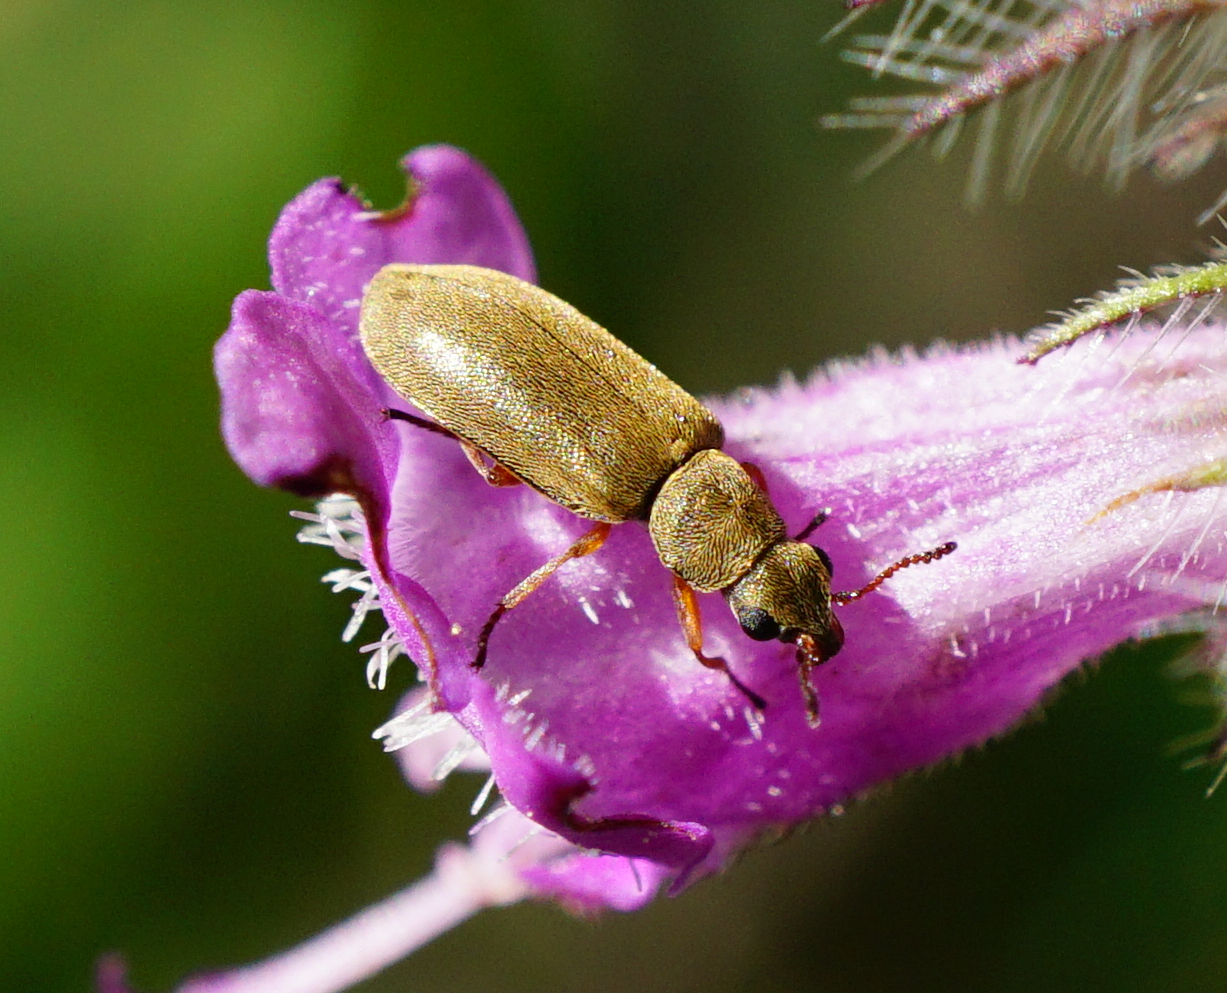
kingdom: Animalia
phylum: Arthropoda
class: Insecta
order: Coleoptera
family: Dasytidae
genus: Danacea
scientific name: Danacea nigritarsis
